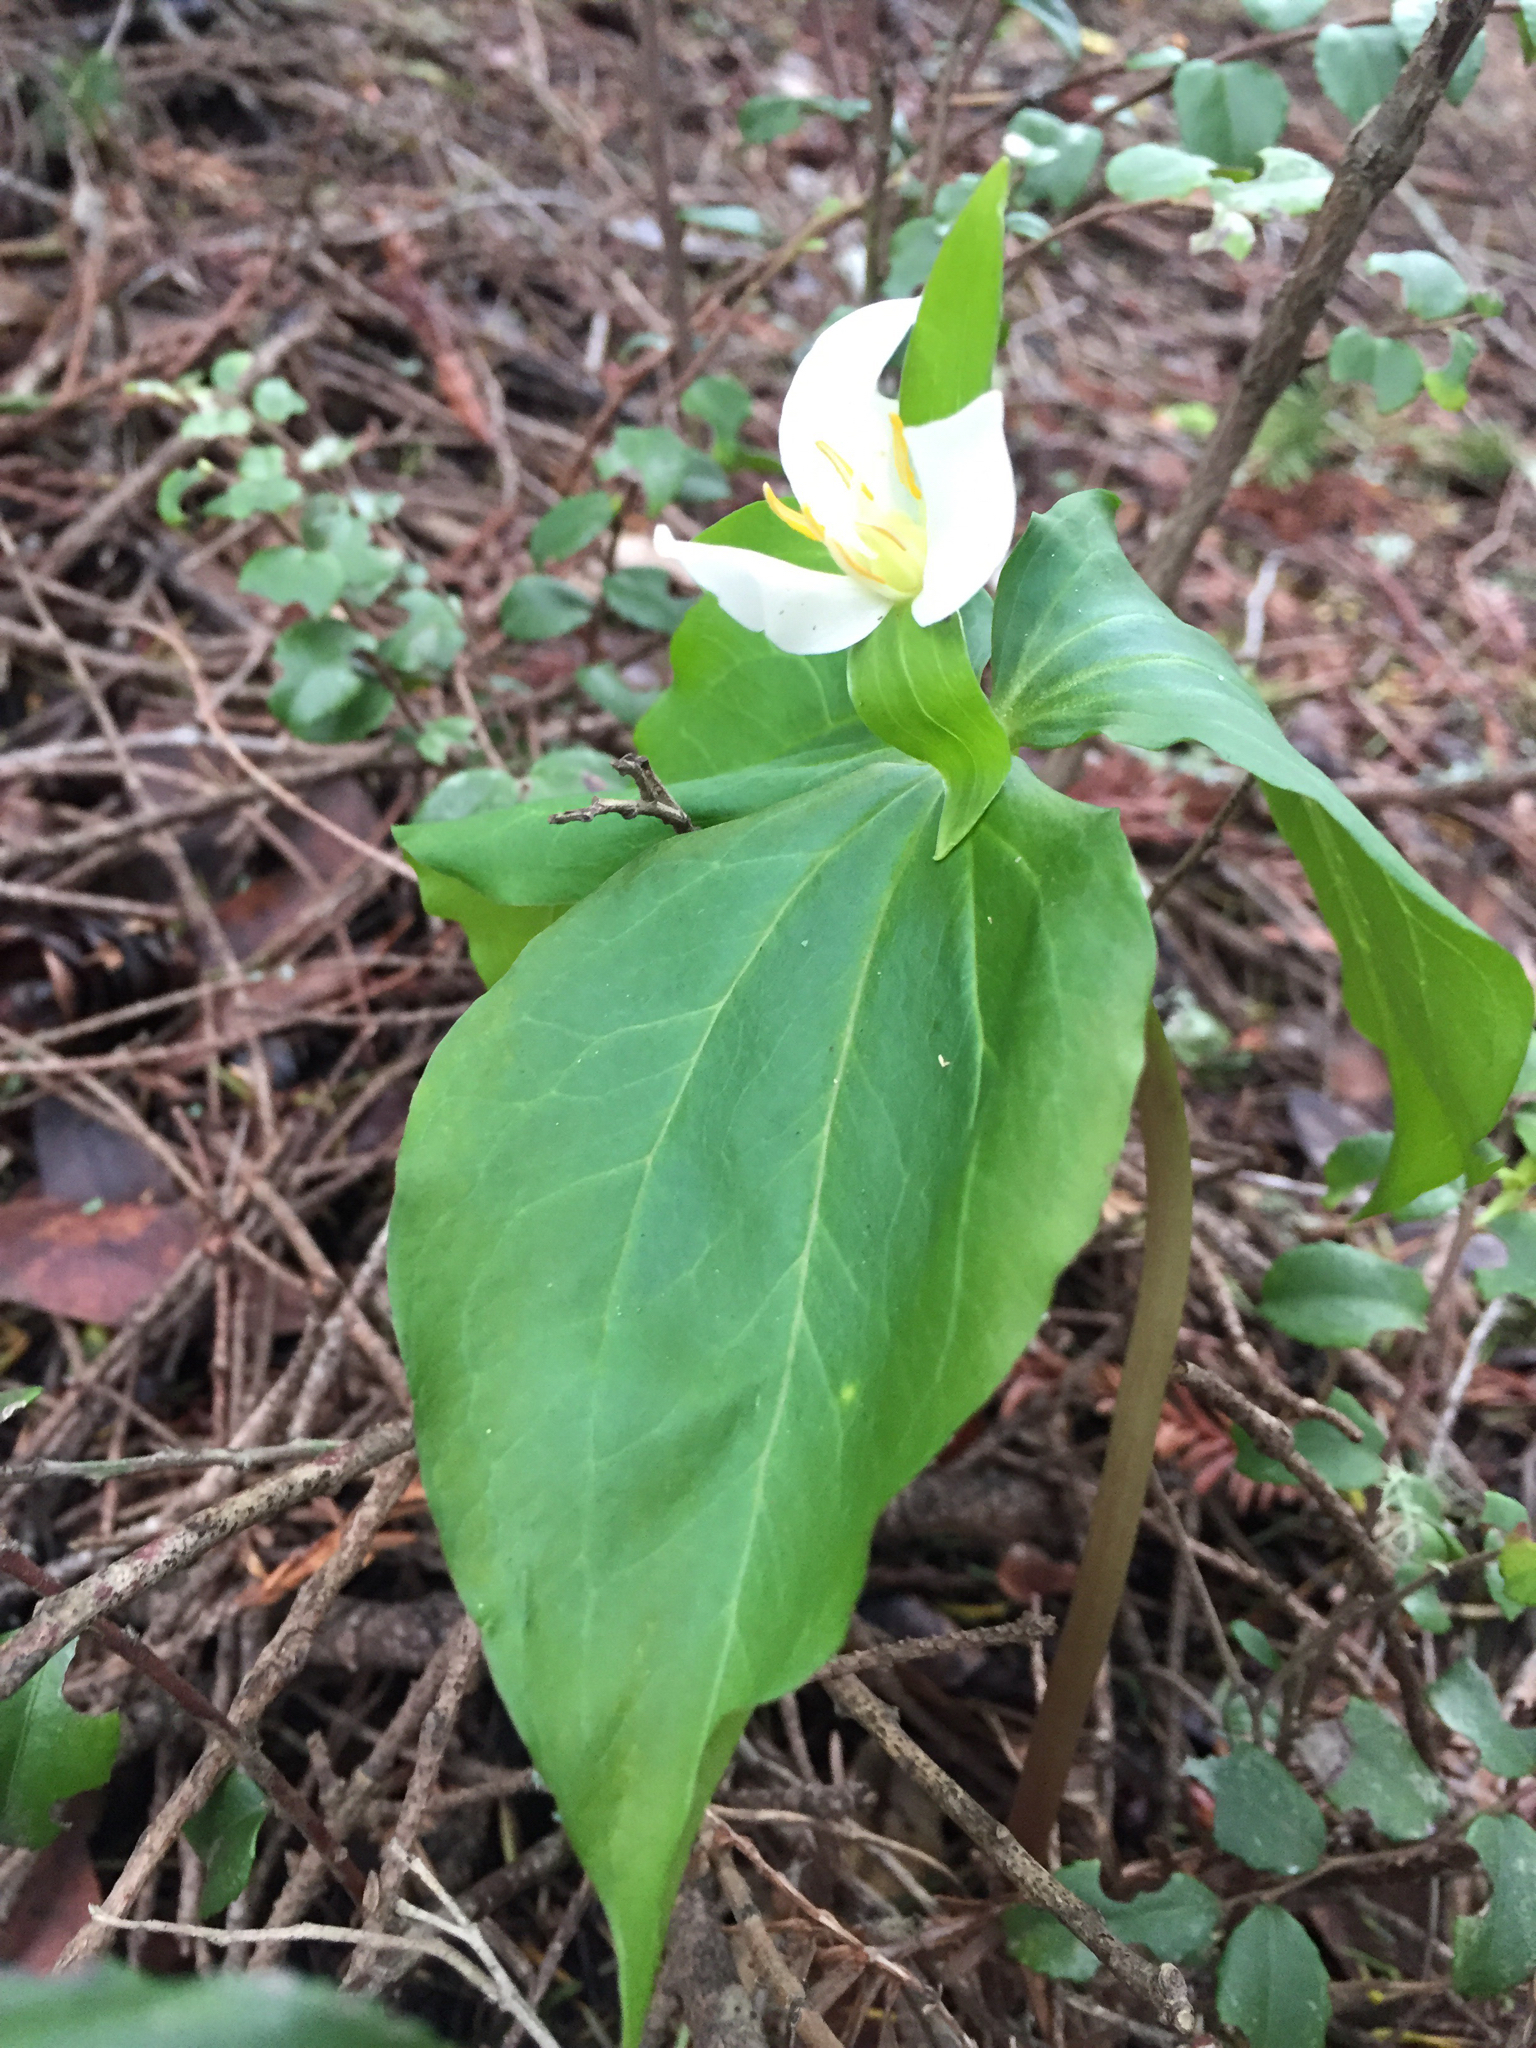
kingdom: Plantae
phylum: Tracheophyta
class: Liliopsida
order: Liliales
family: Melanthiaceae
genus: Trillium
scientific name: Trillium ovatum
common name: Pacific trillium
